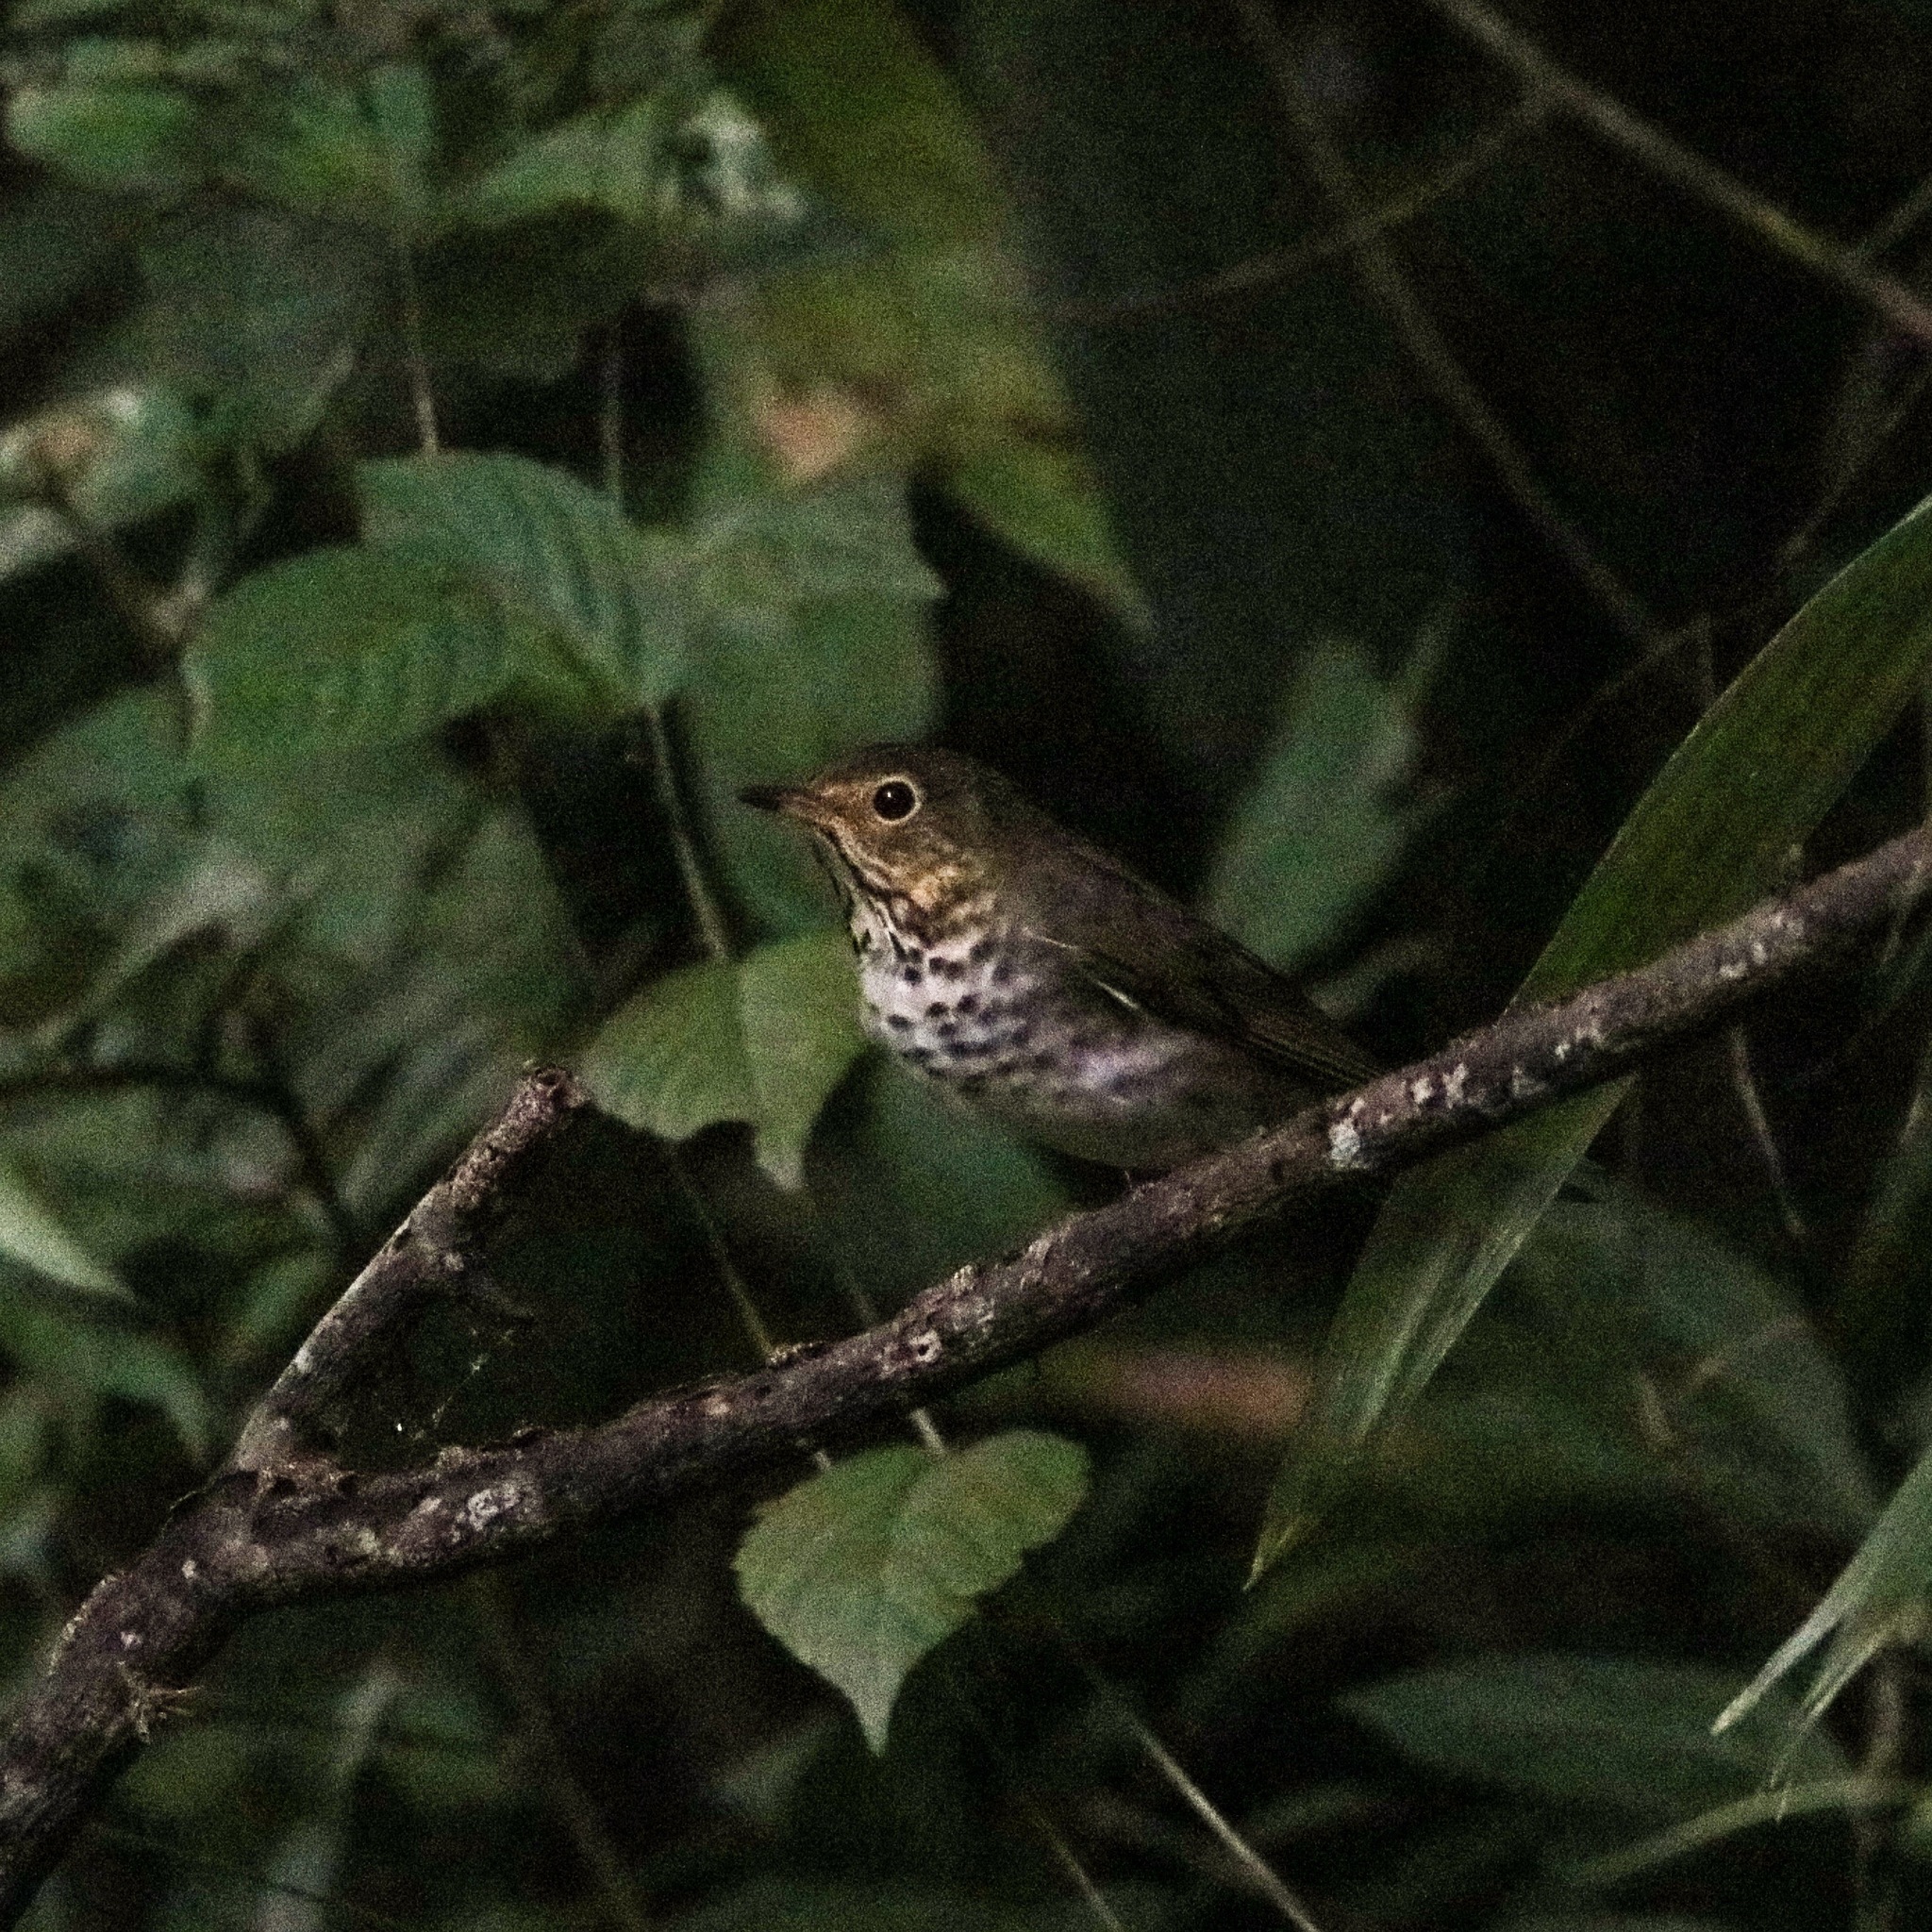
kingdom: Animalia
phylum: Chordata
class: Aves
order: Passeriformes
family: Turdidae
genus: Catharus
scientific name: Catharus ustulatus
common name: Swainson's thrush
